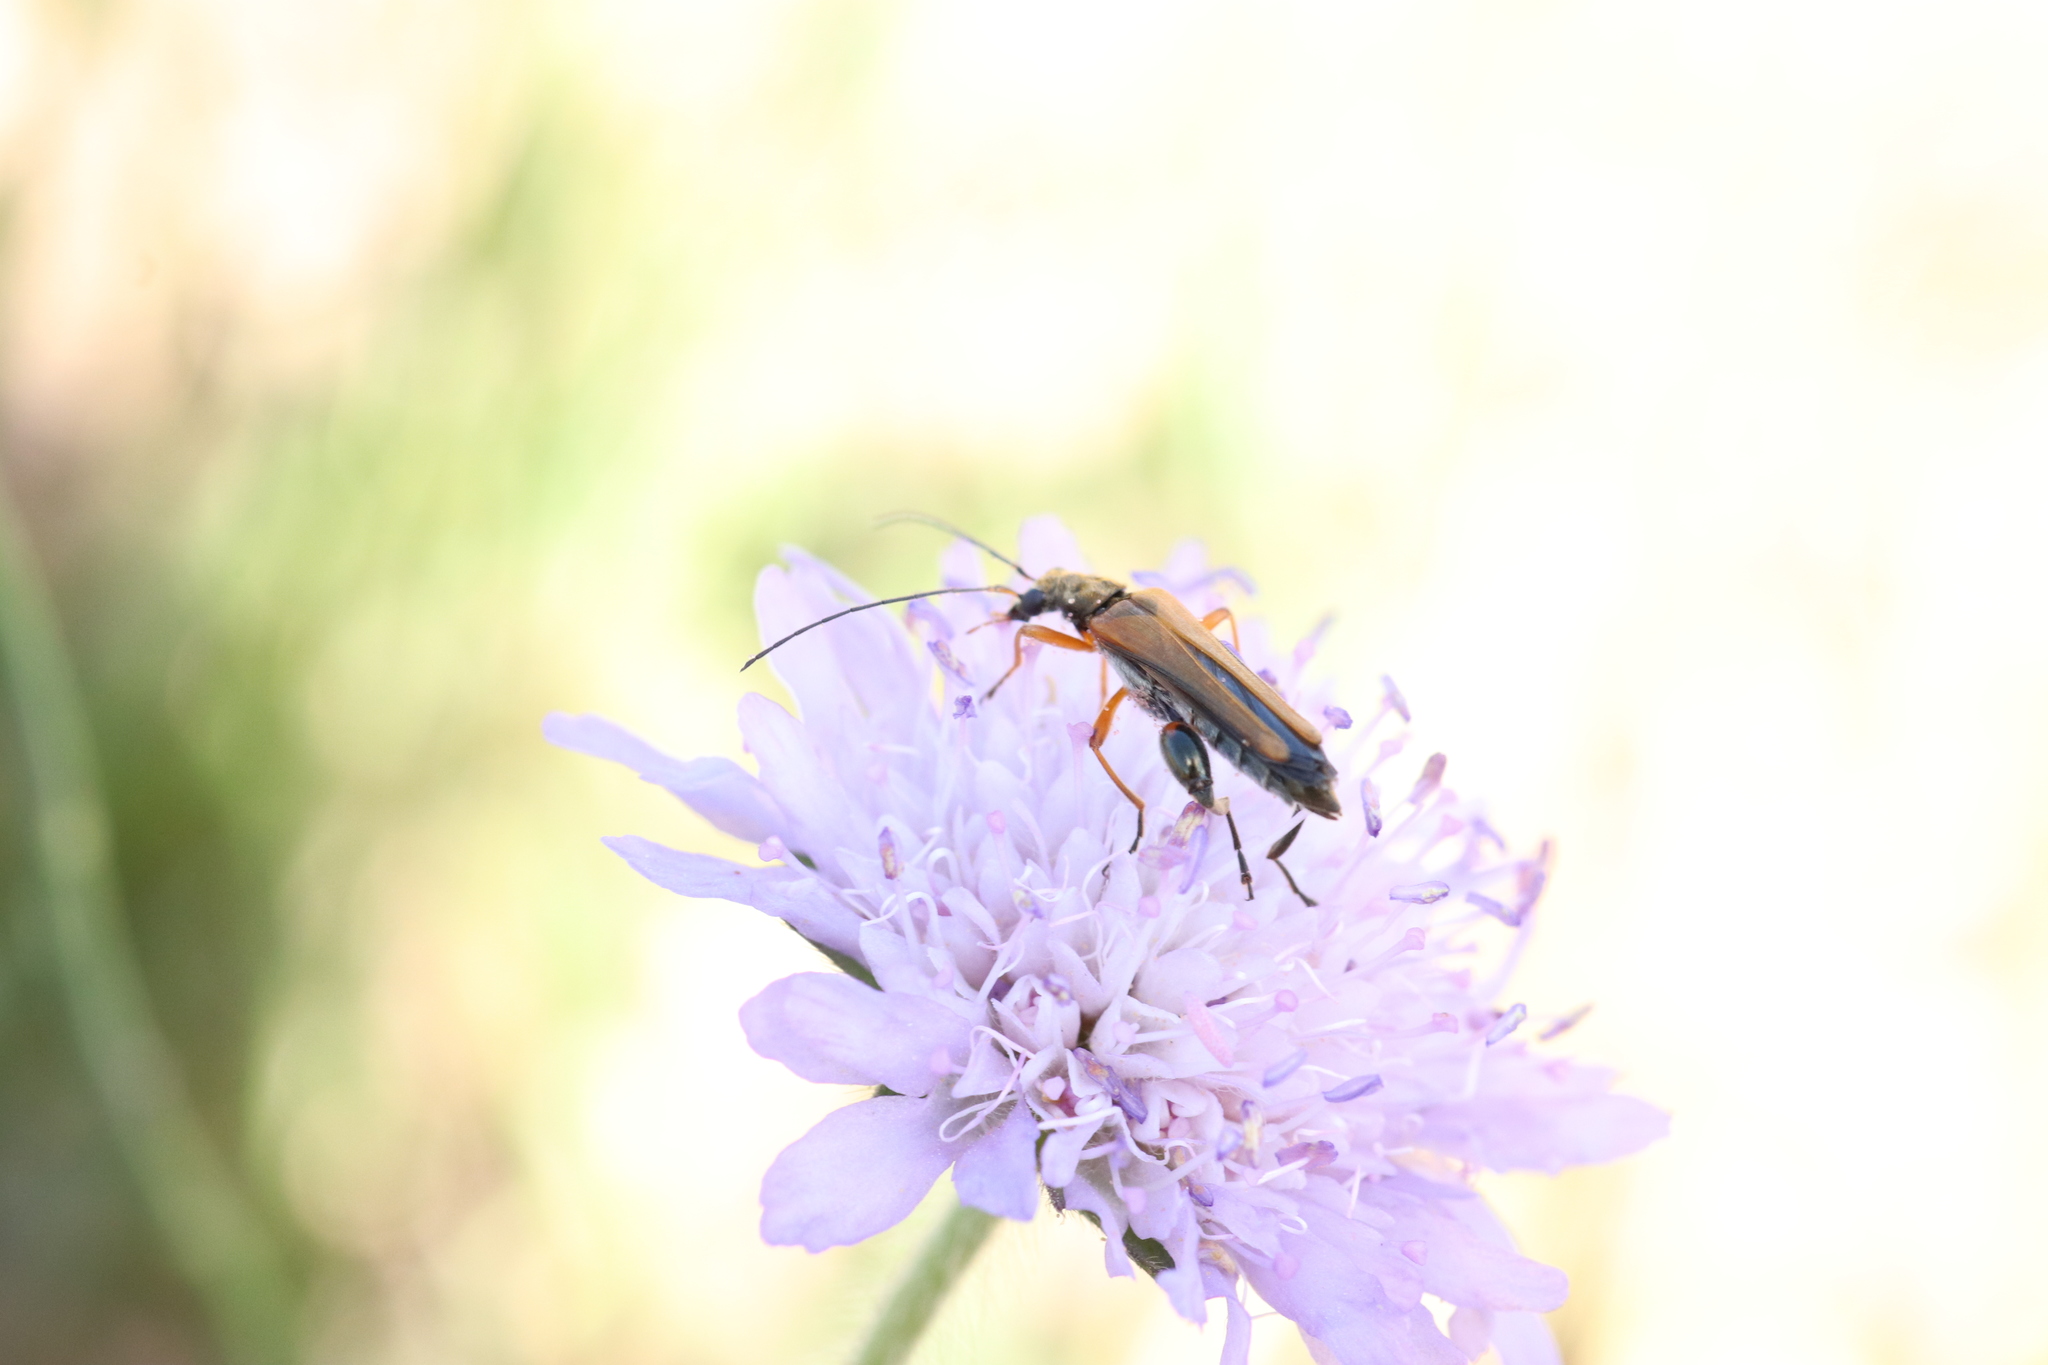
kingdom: Animalia
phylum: Arthropoda
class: Insecta
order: Coleoptera
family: Oedemeridae
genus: Oedemera
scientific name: Oedemera podagrariae
